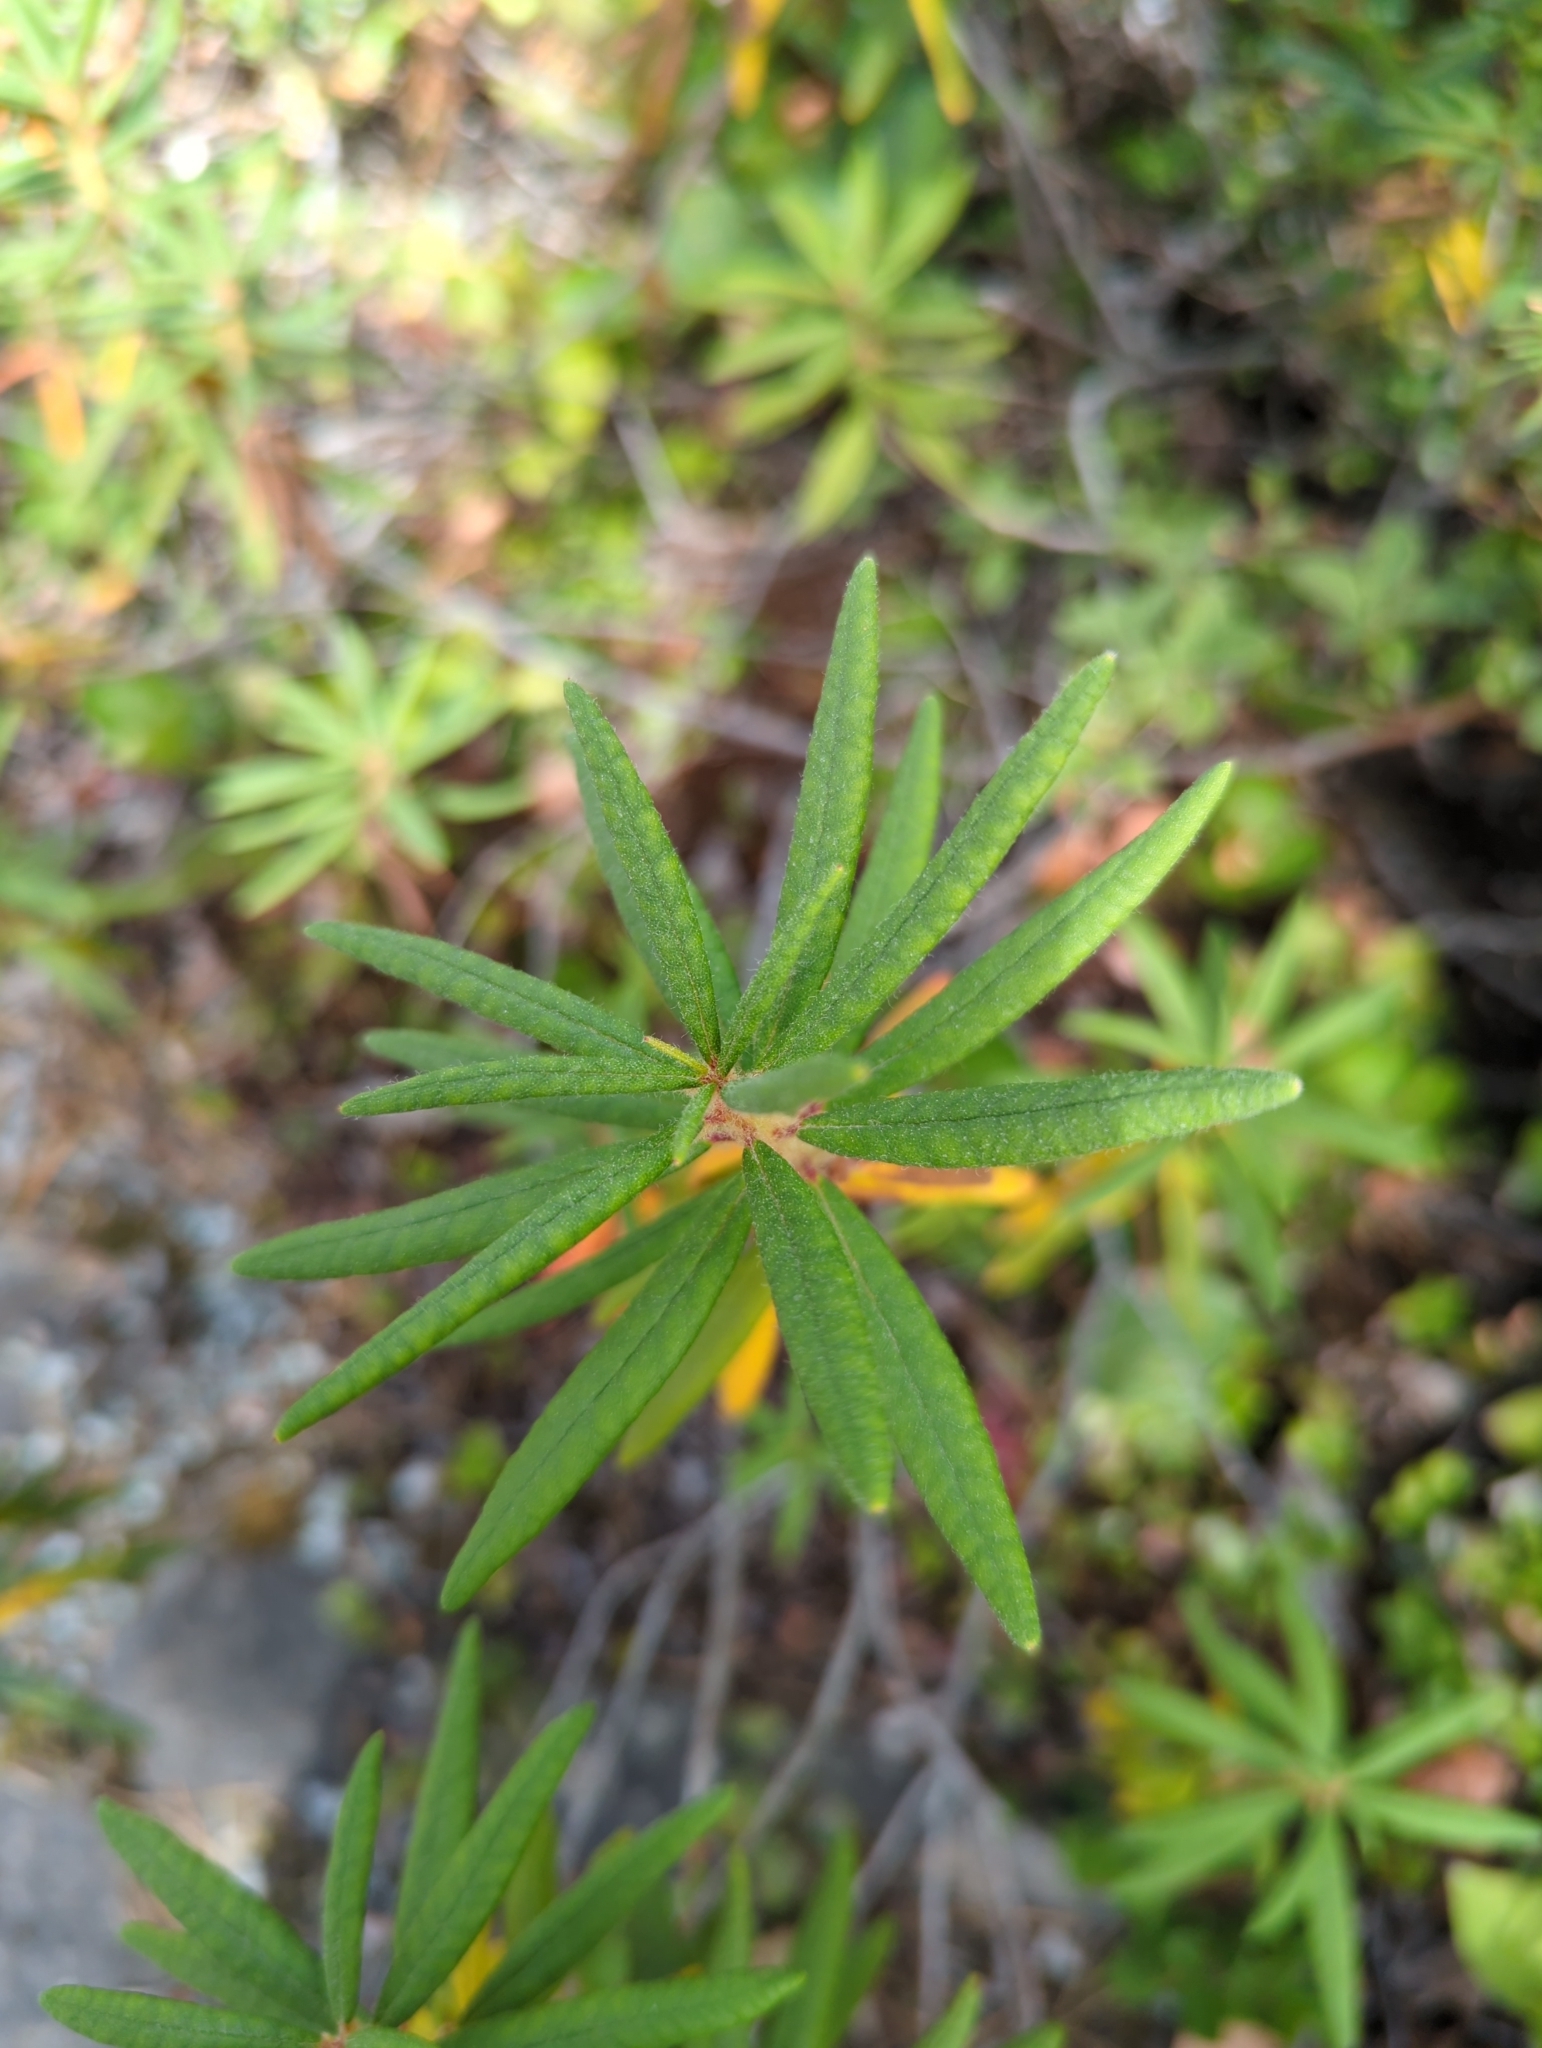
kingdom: Plantae
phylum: Tracheophyta
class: Magnoliopsida
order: Ericales
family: Ericaceae
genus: Rhododendron
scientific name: Rhododendron groenlandicum
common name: Bog labrador tea
